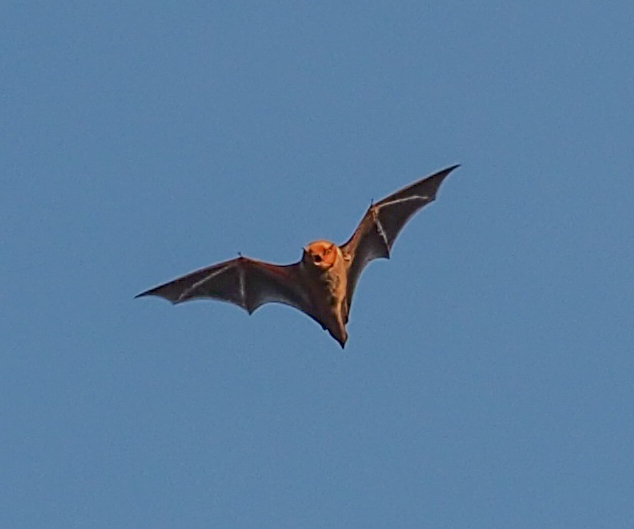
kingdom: Animalia
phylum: Chordata
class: Mammalia
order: Chiroptera
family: Vespertilionidae
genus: Lasiurus
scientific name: Lasiurus borealis
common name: Eastern red bat
